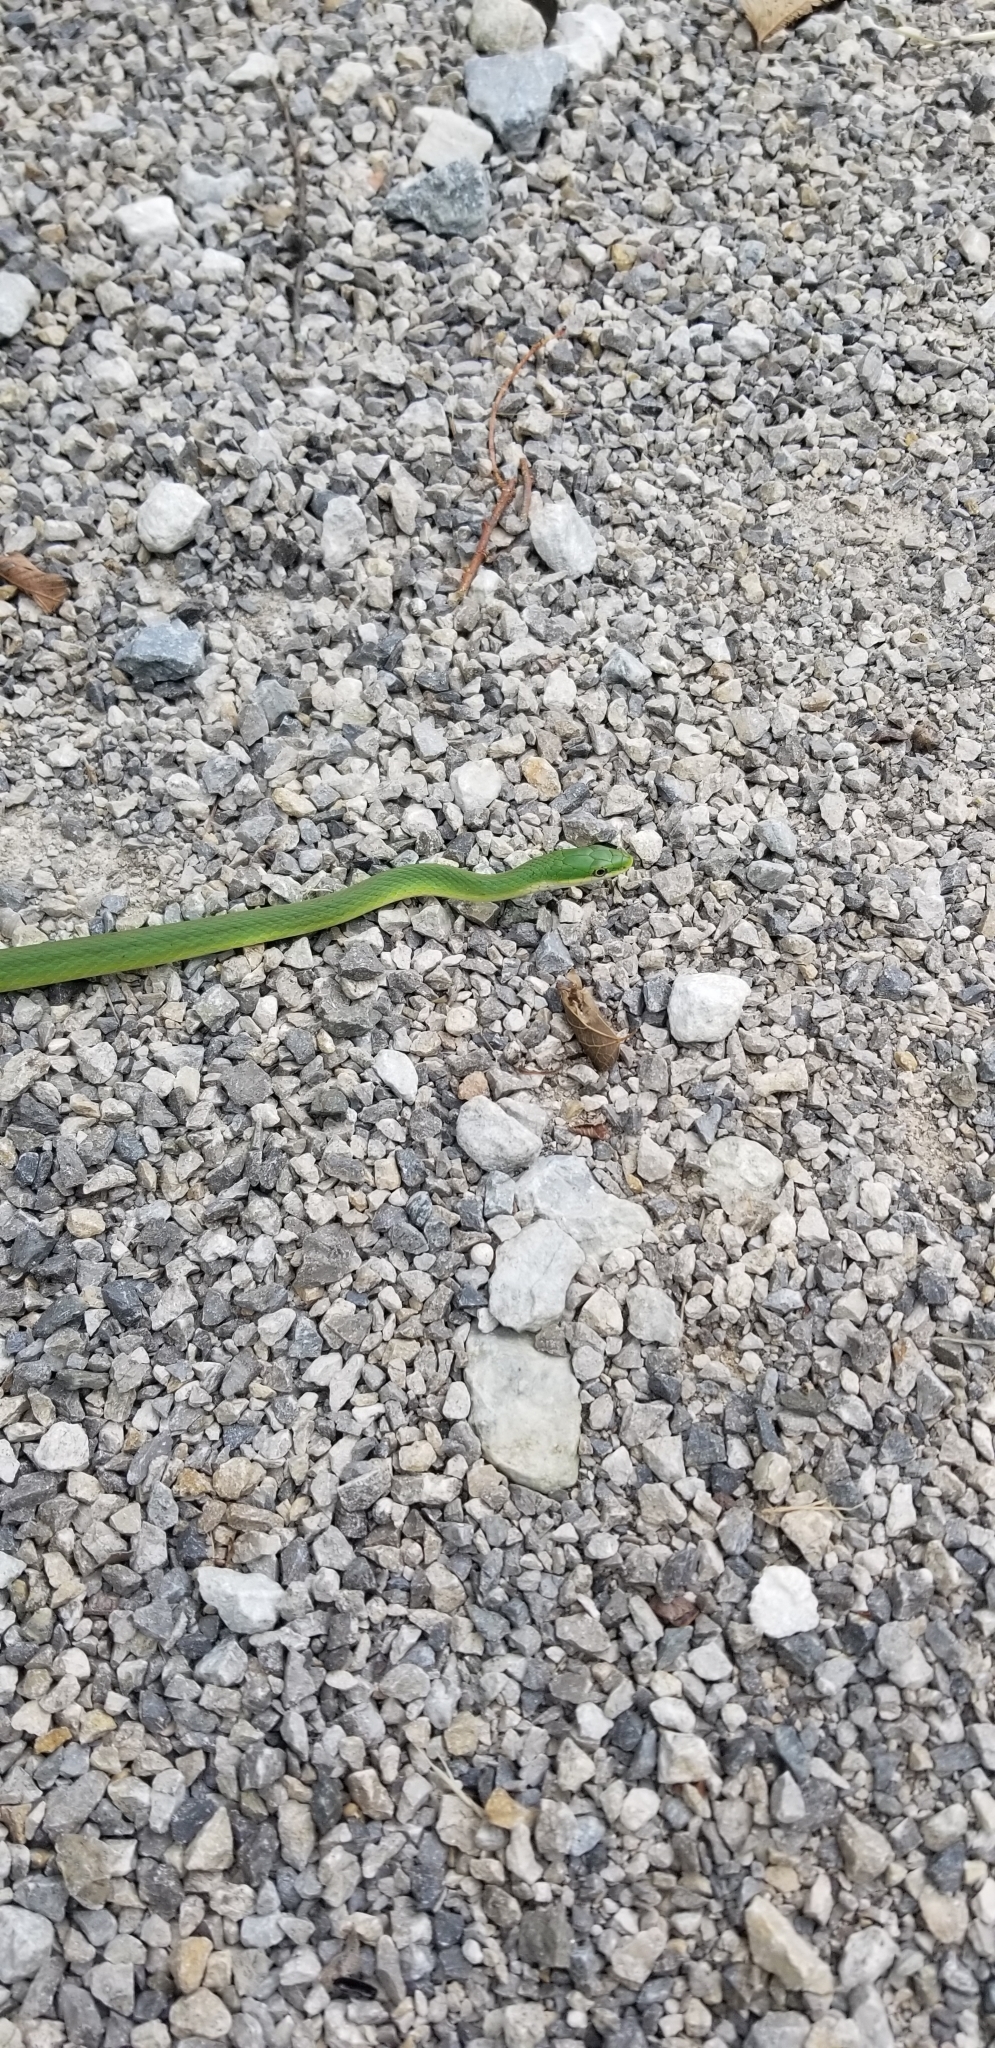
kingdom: Animalia
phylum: Chordata
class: Squamata
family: Colubridae
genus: Opheodrys
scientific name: Opheodrys aestivus
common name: Rough greensnake
